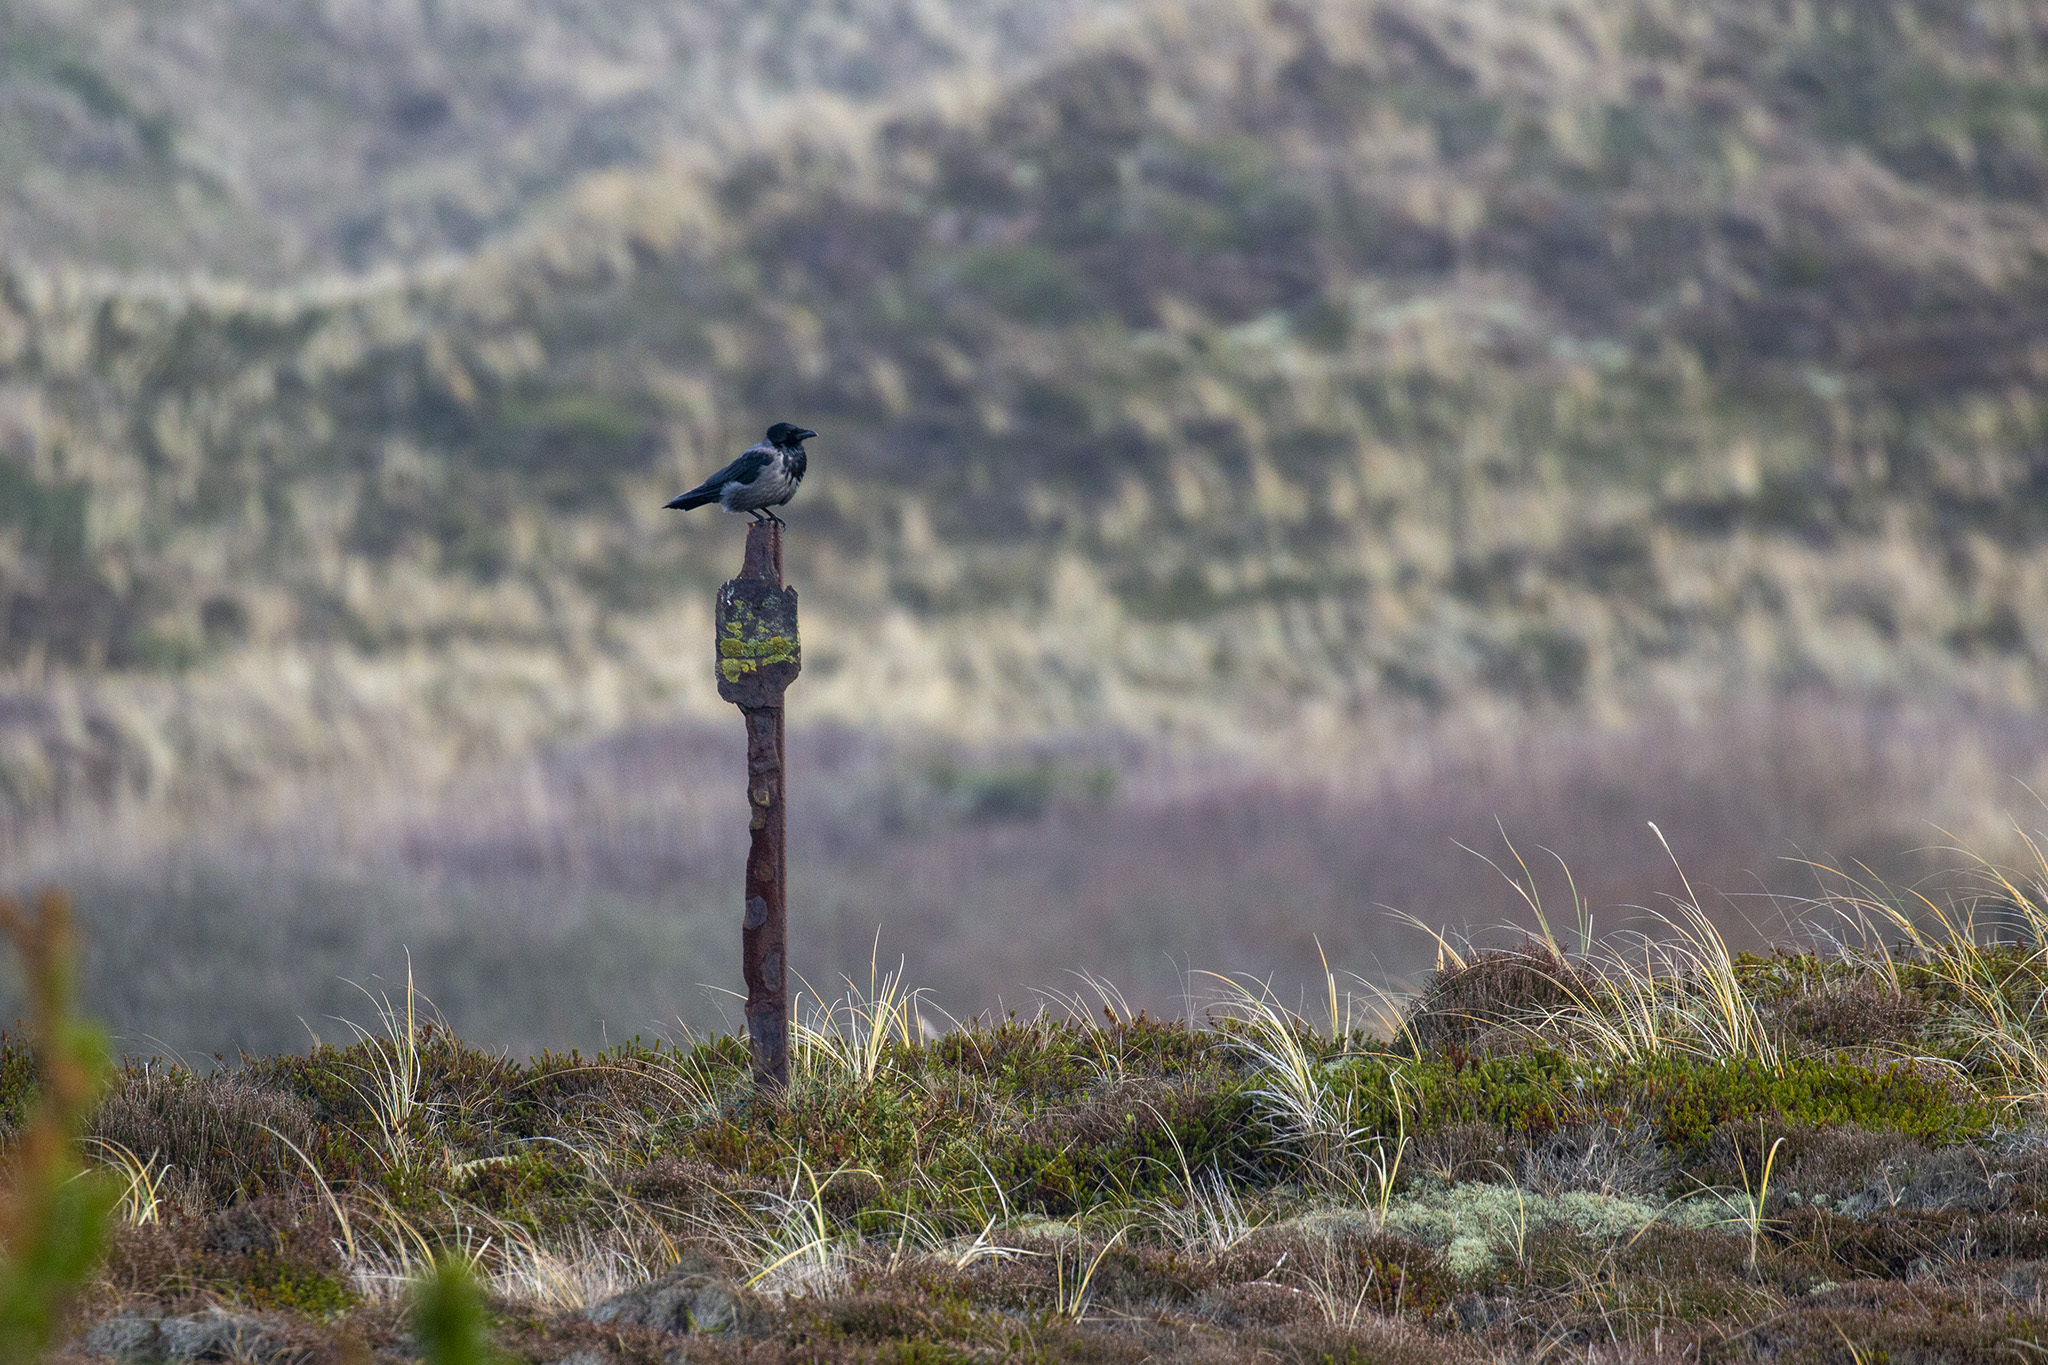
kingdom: Animalia
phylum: Chordata
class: Aves
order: Passeriformes
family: Corvidae
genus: Corvus
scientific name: Corvus cornix
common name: Hooded crow
